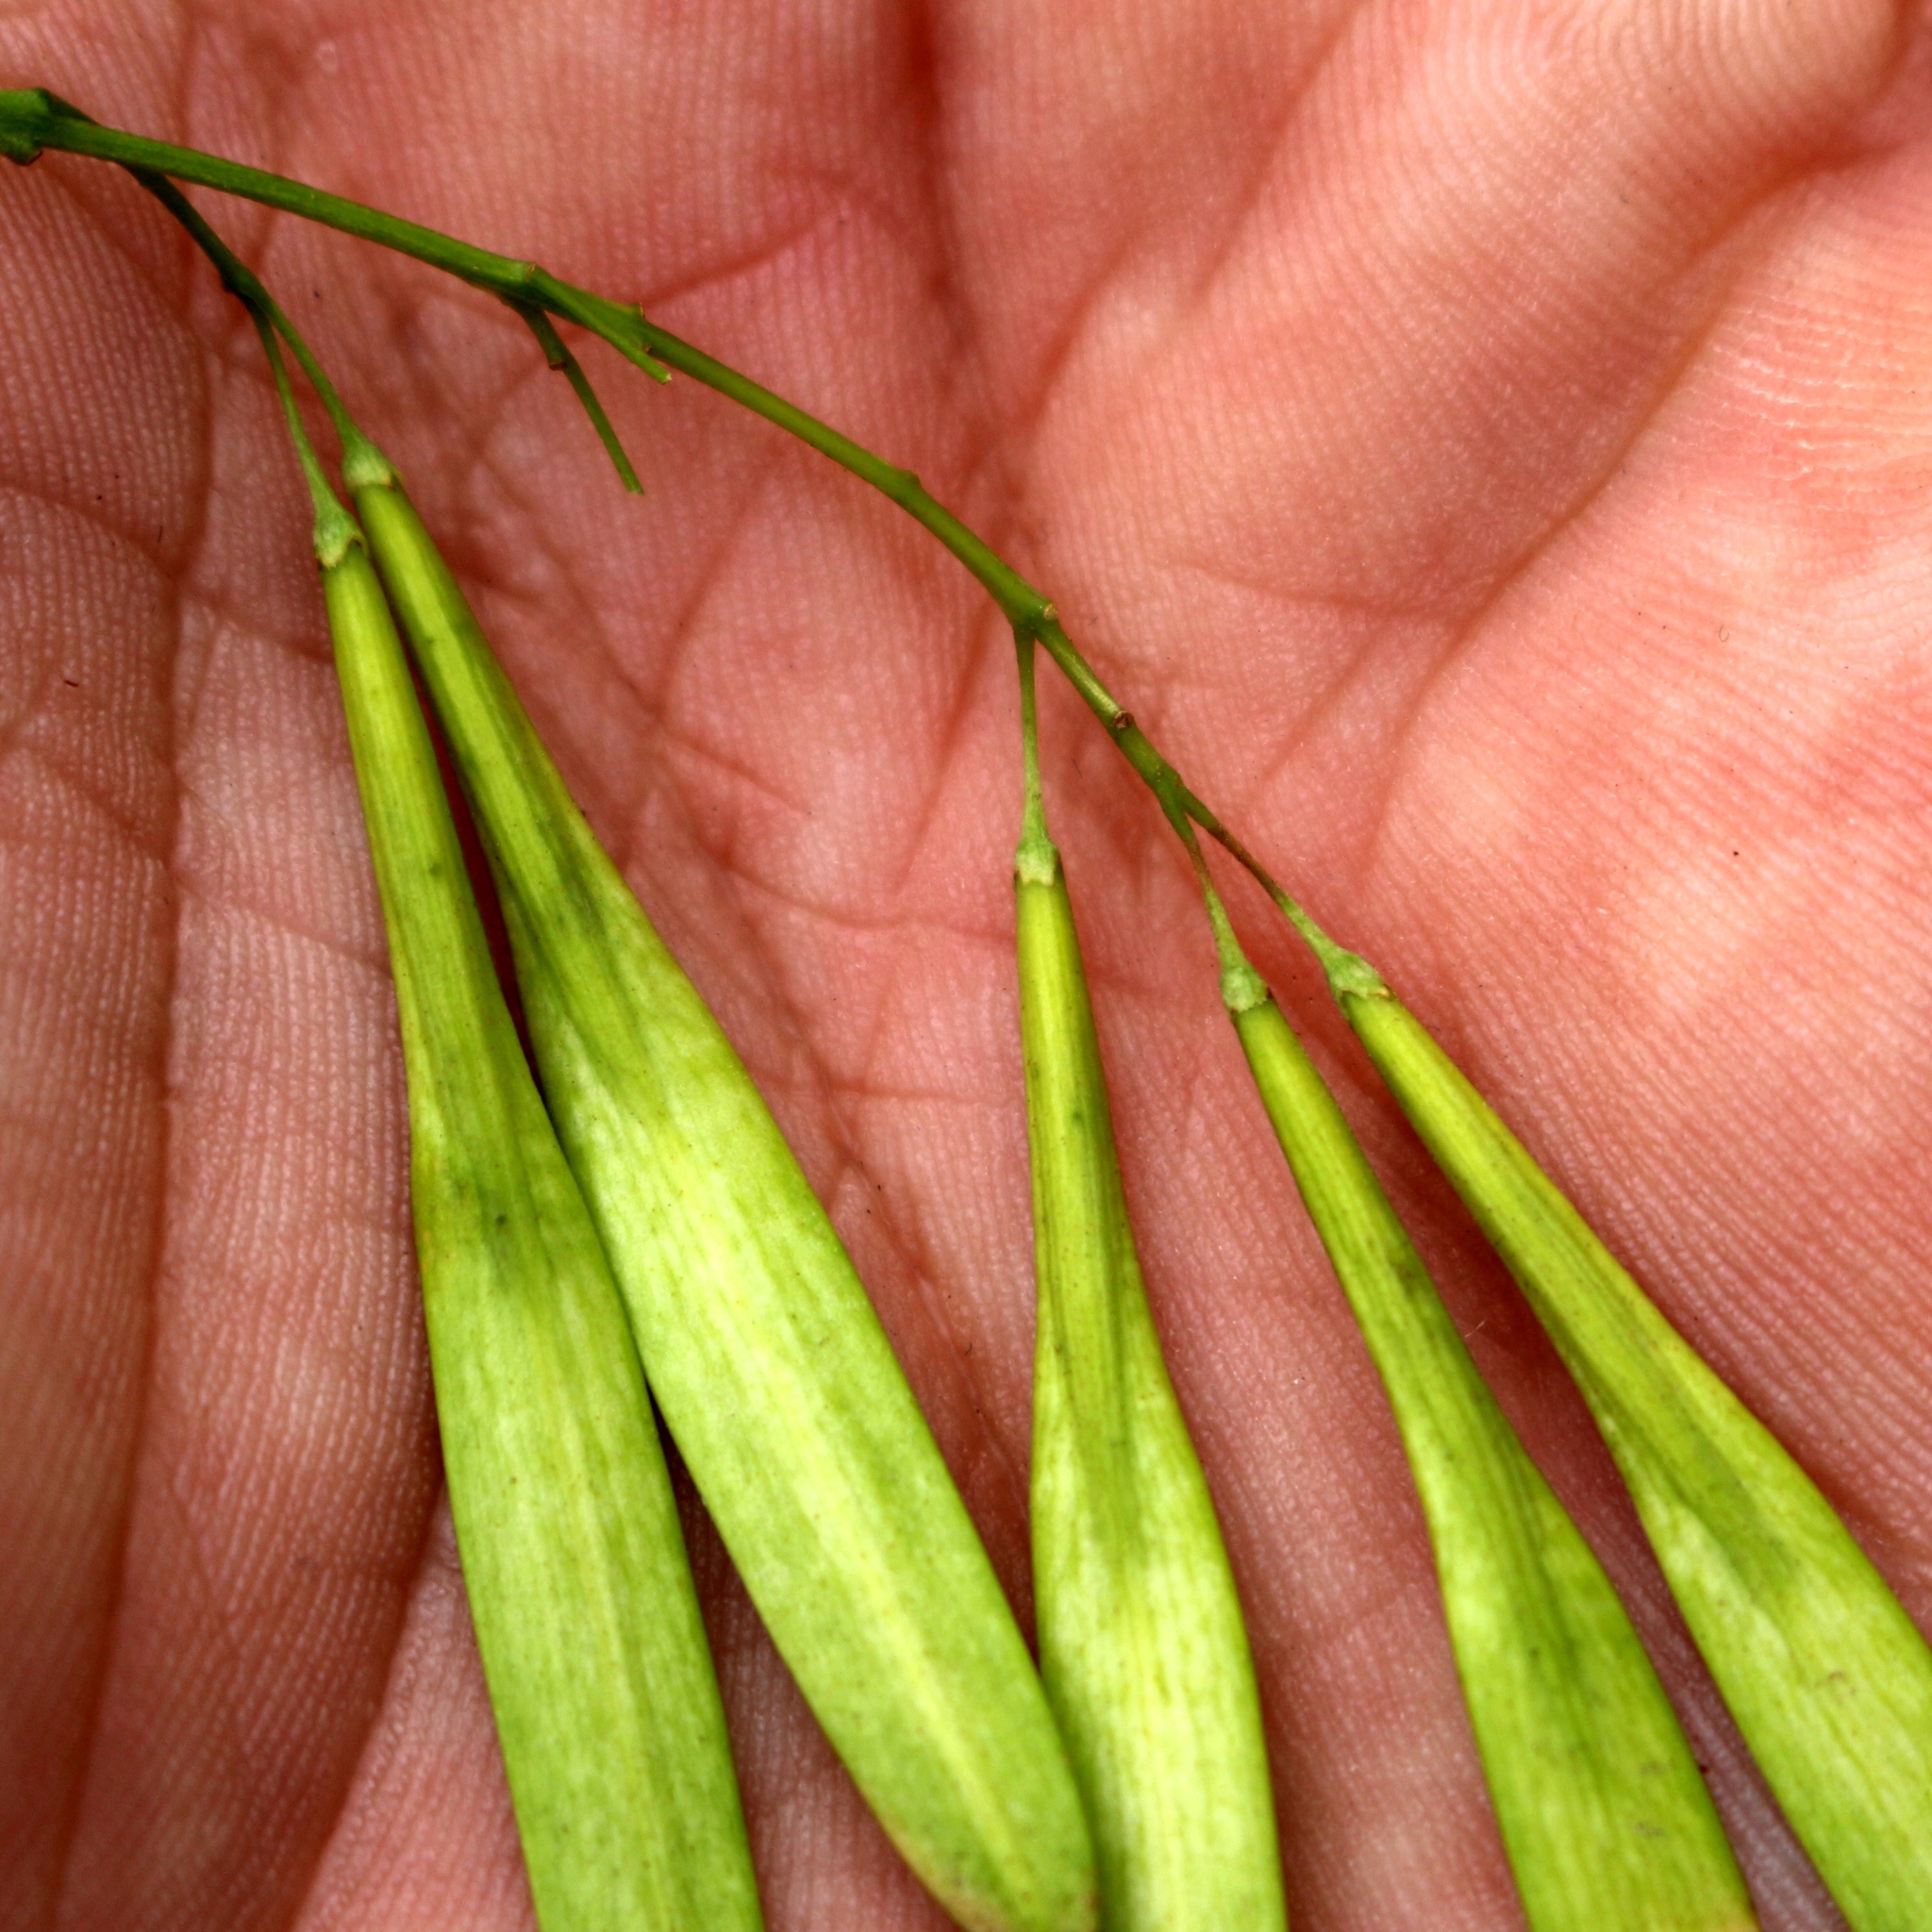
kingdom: Plantae
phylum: Tracheophyta
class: Magnoliopsida
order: Lamiales
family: Oleaceae
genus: Fraxinus
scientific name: Fraxinus pennsylvanica
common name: Green ash
